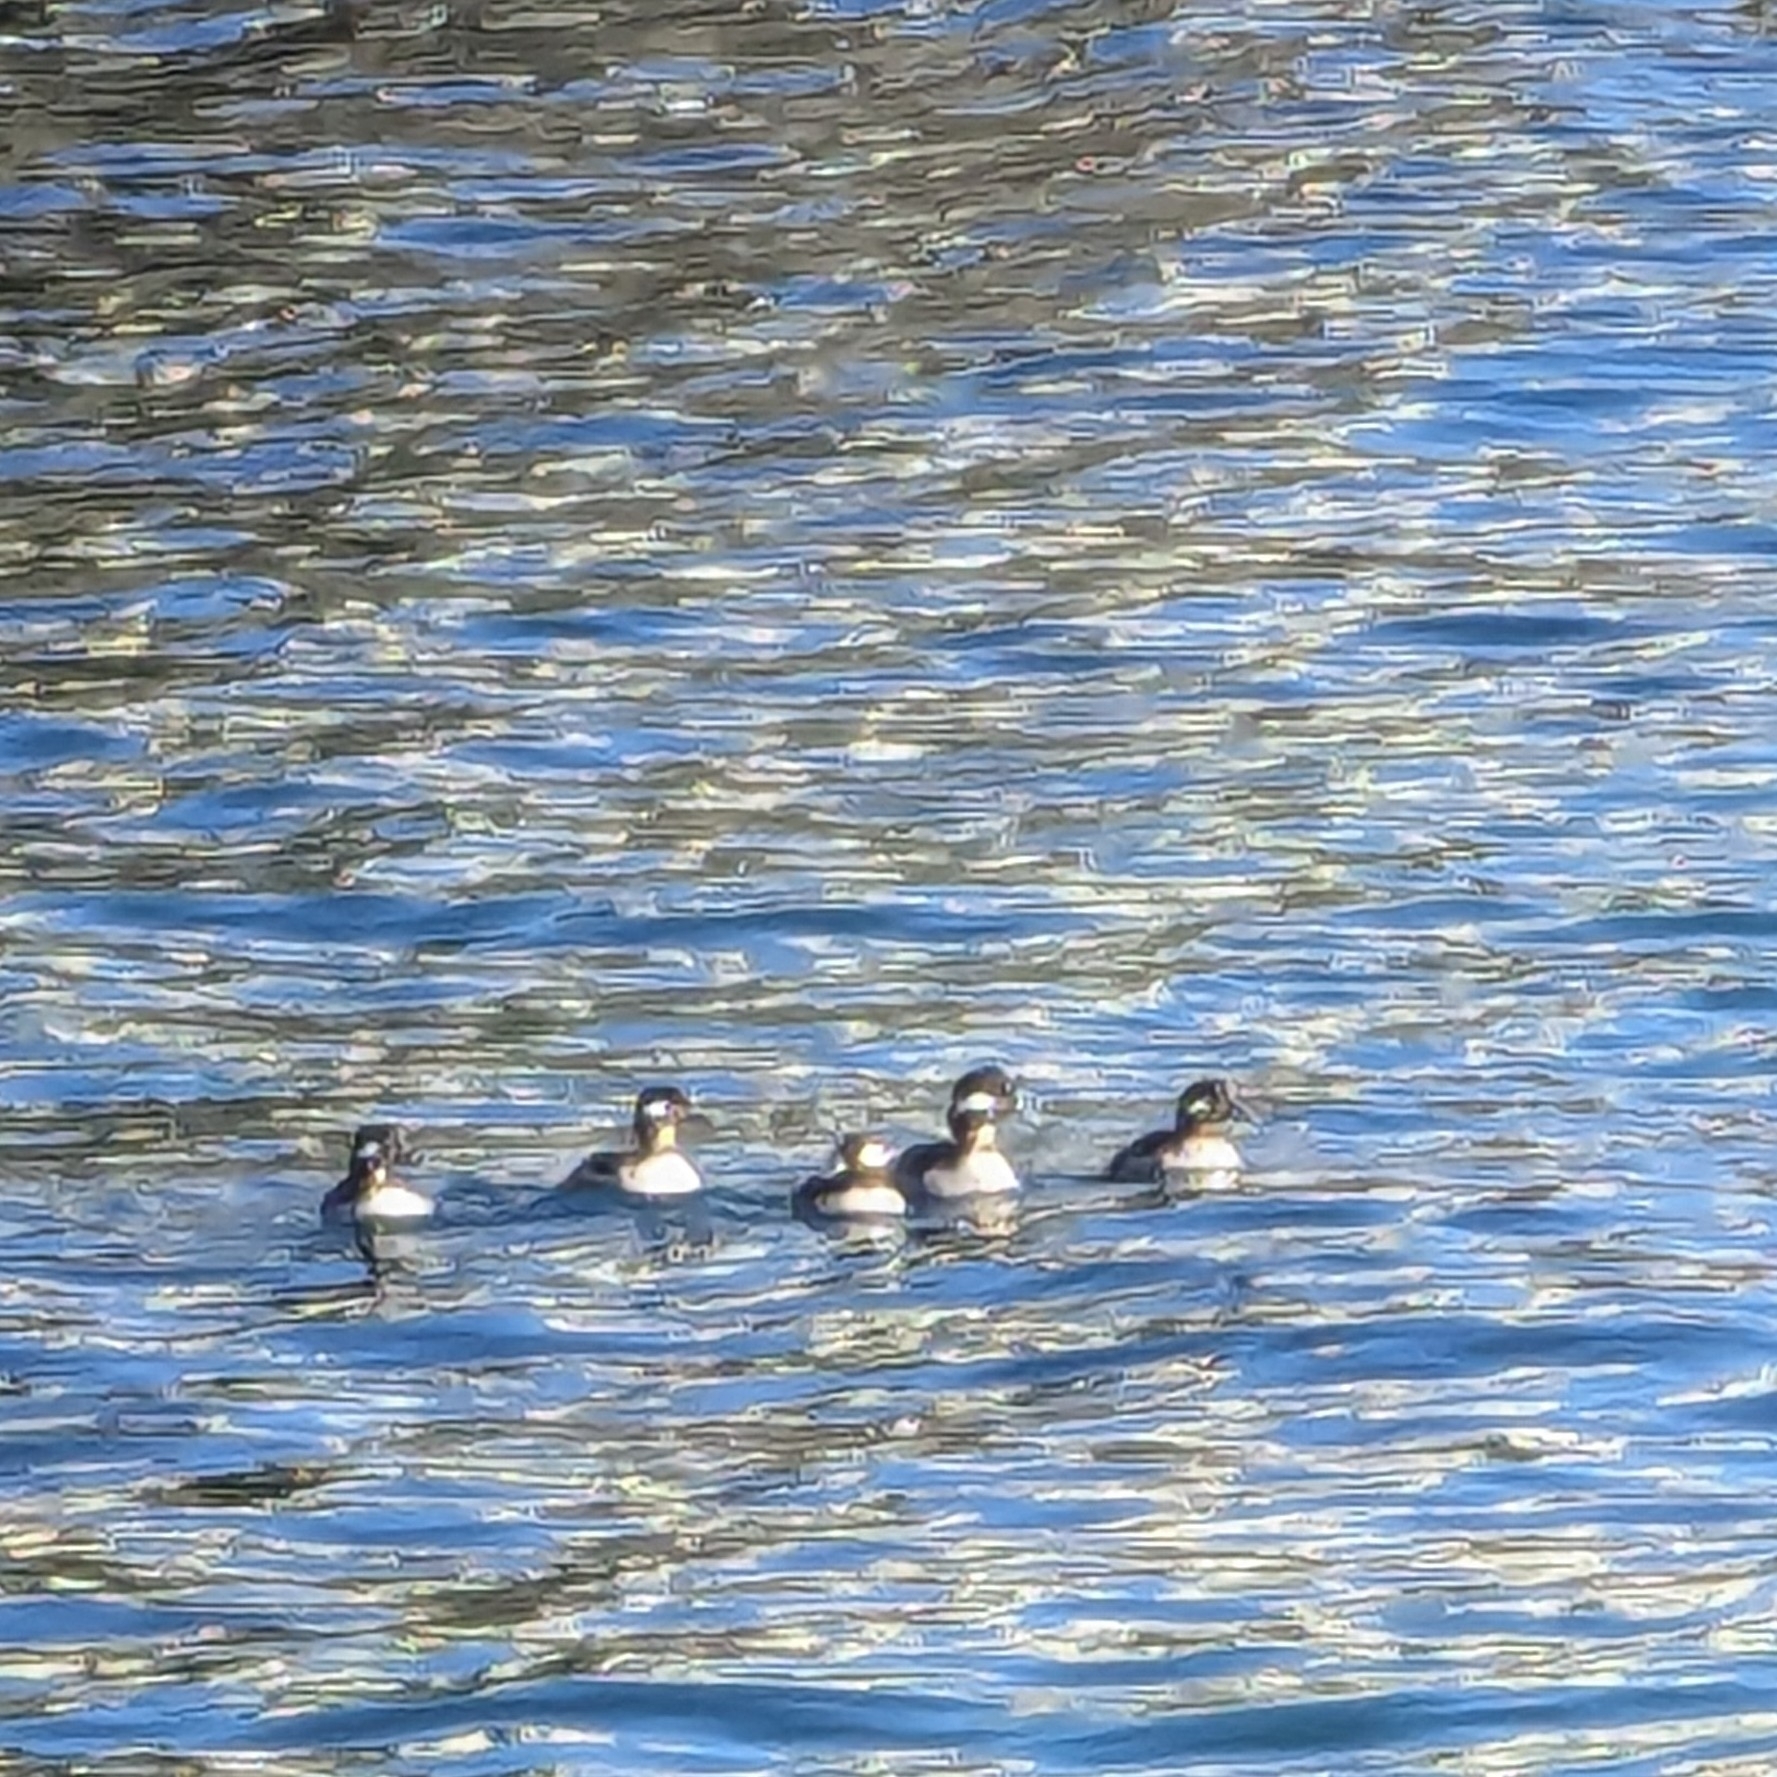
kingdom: Animalia
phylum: Chordata
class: Aves
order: Anseriformes
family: Anatidae
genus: Bucephala
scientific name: Bucephala albeola
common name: Bufflehead
